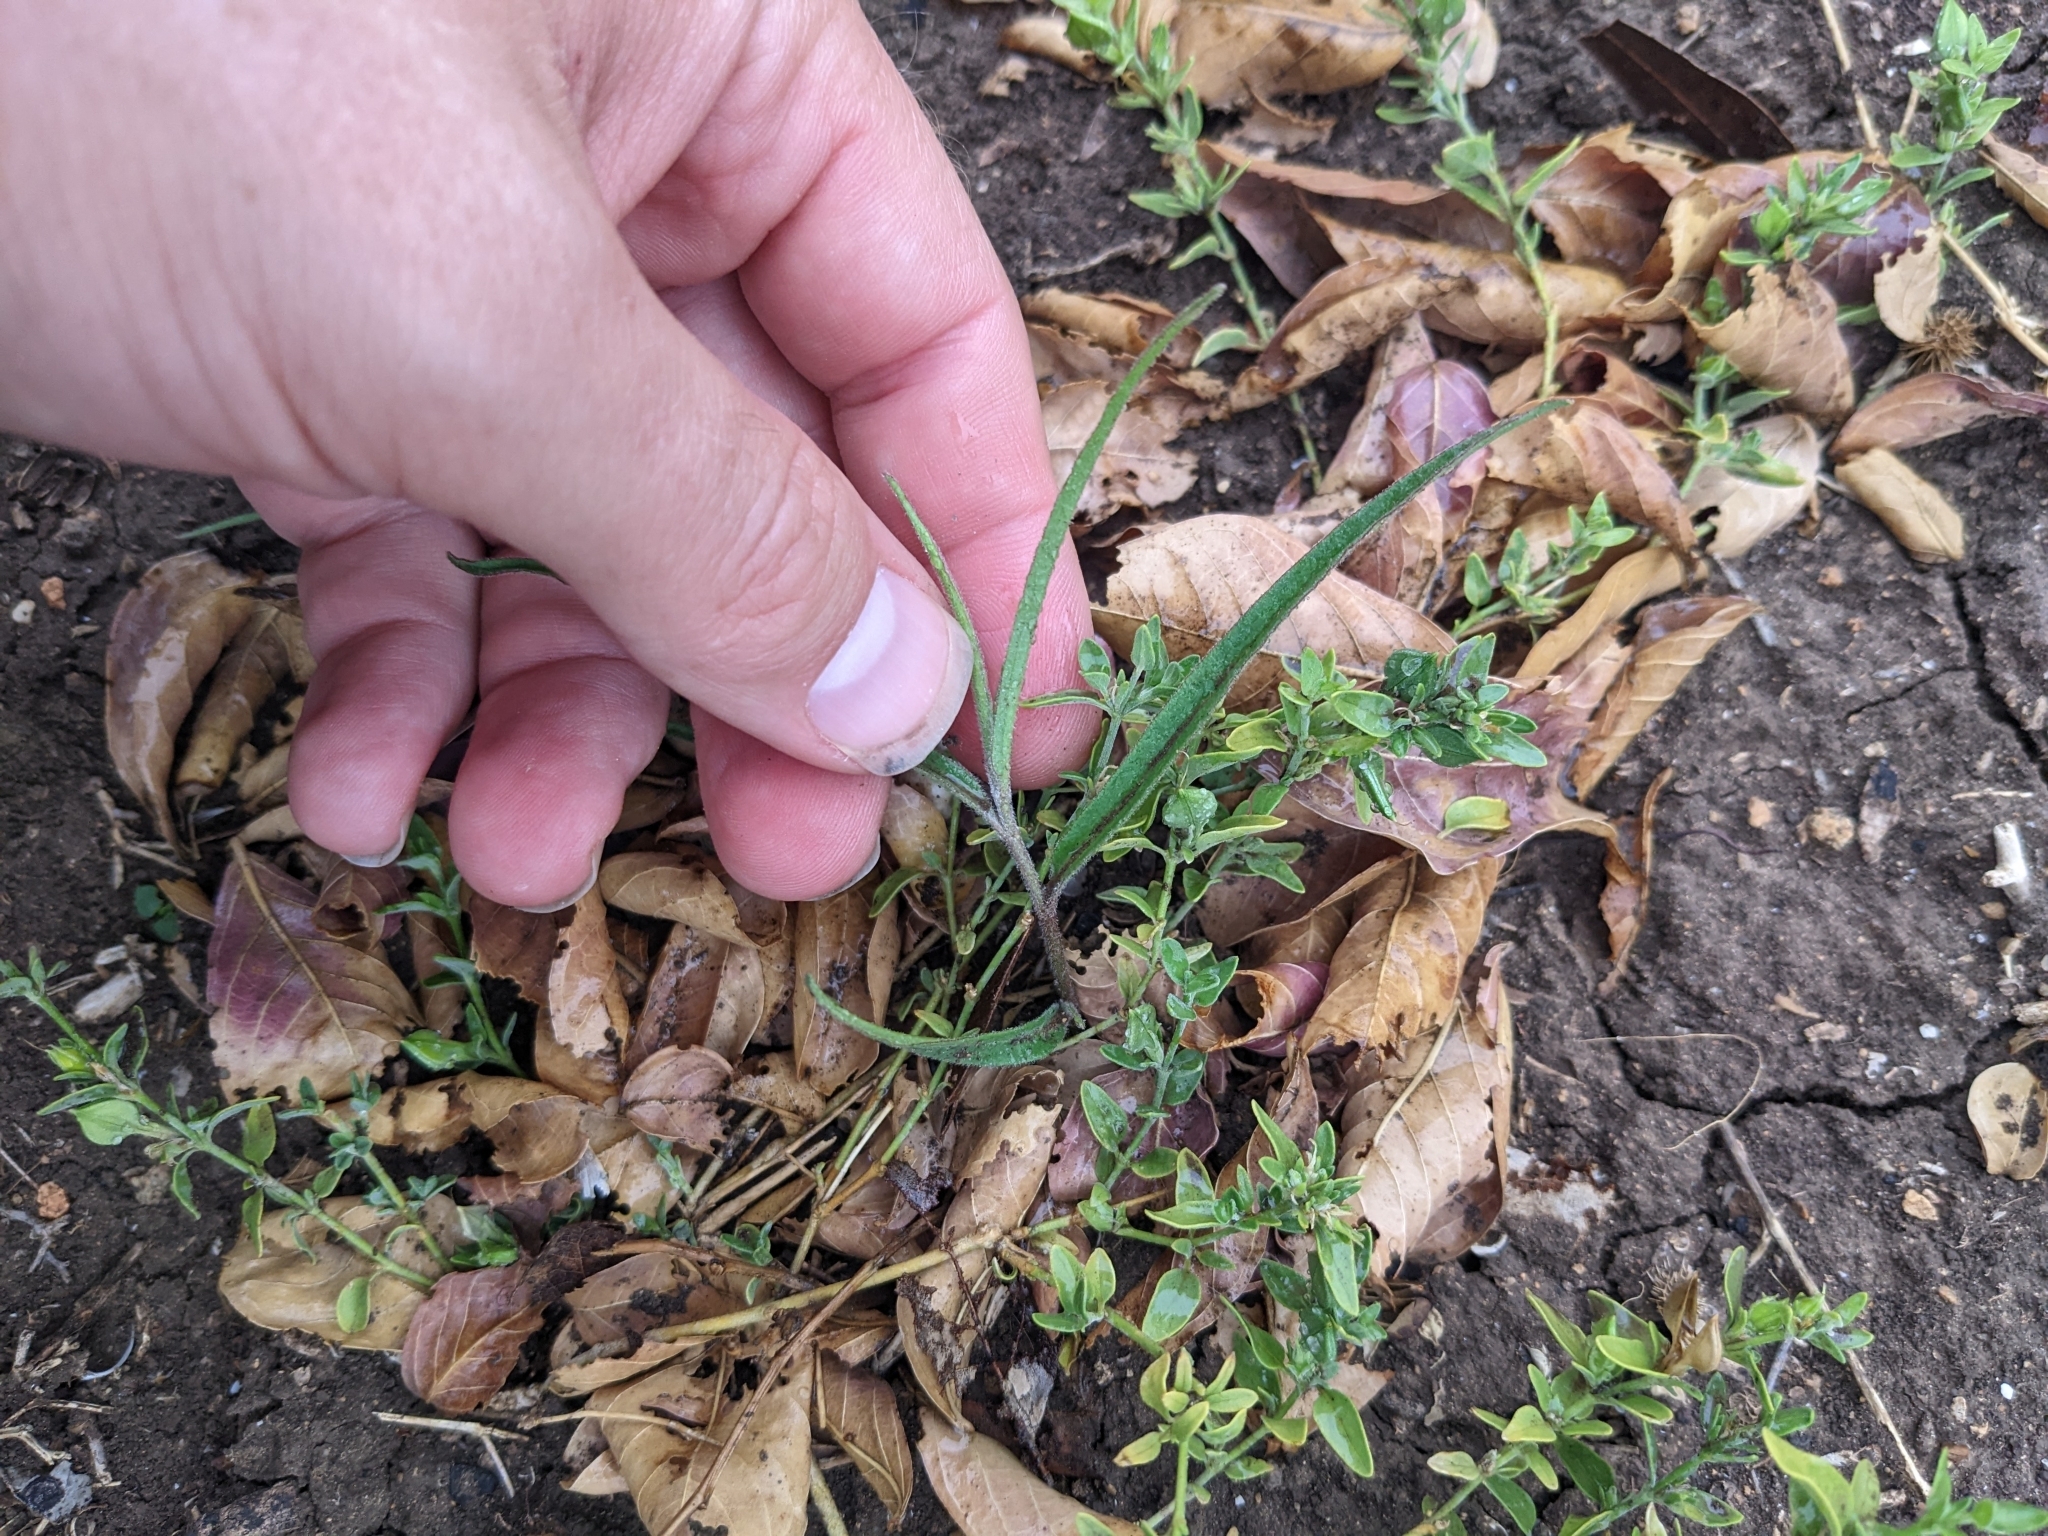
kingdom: Plantae
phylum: Tracheophyta
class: Magnoliopsida
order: Piperales
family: Aristolochiaceae
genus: Aristolochia
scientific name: Aristolochia erecta
